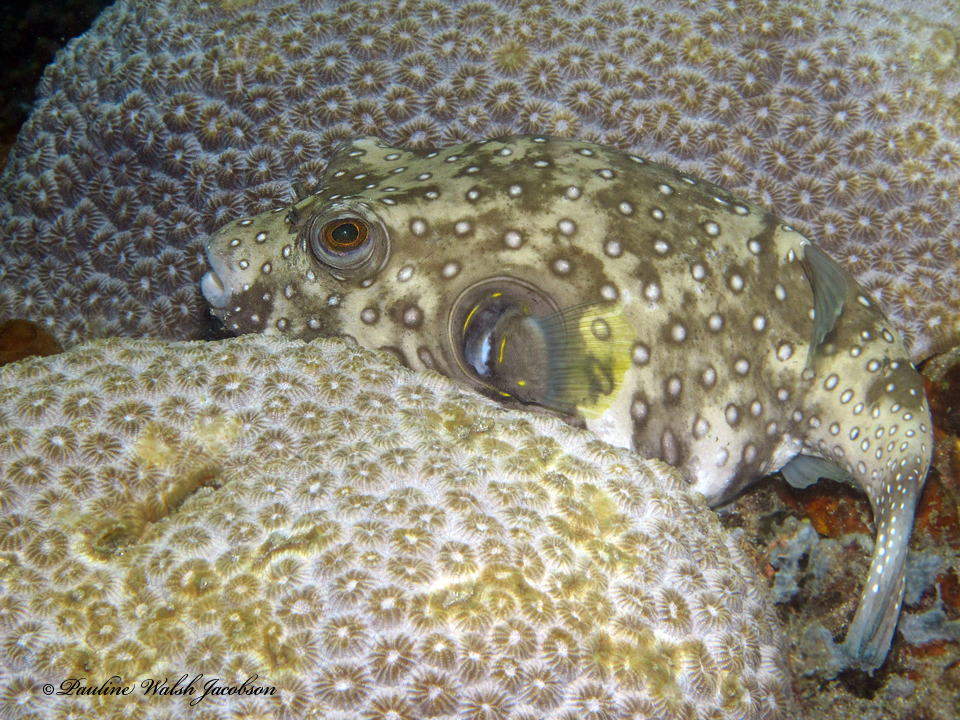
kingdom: Animalia
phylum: Chordata
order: Tetraodontiformes
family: Tetraodontidae
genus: Arothron
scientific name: Arothron hispidus
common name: Stripebelly puffer
